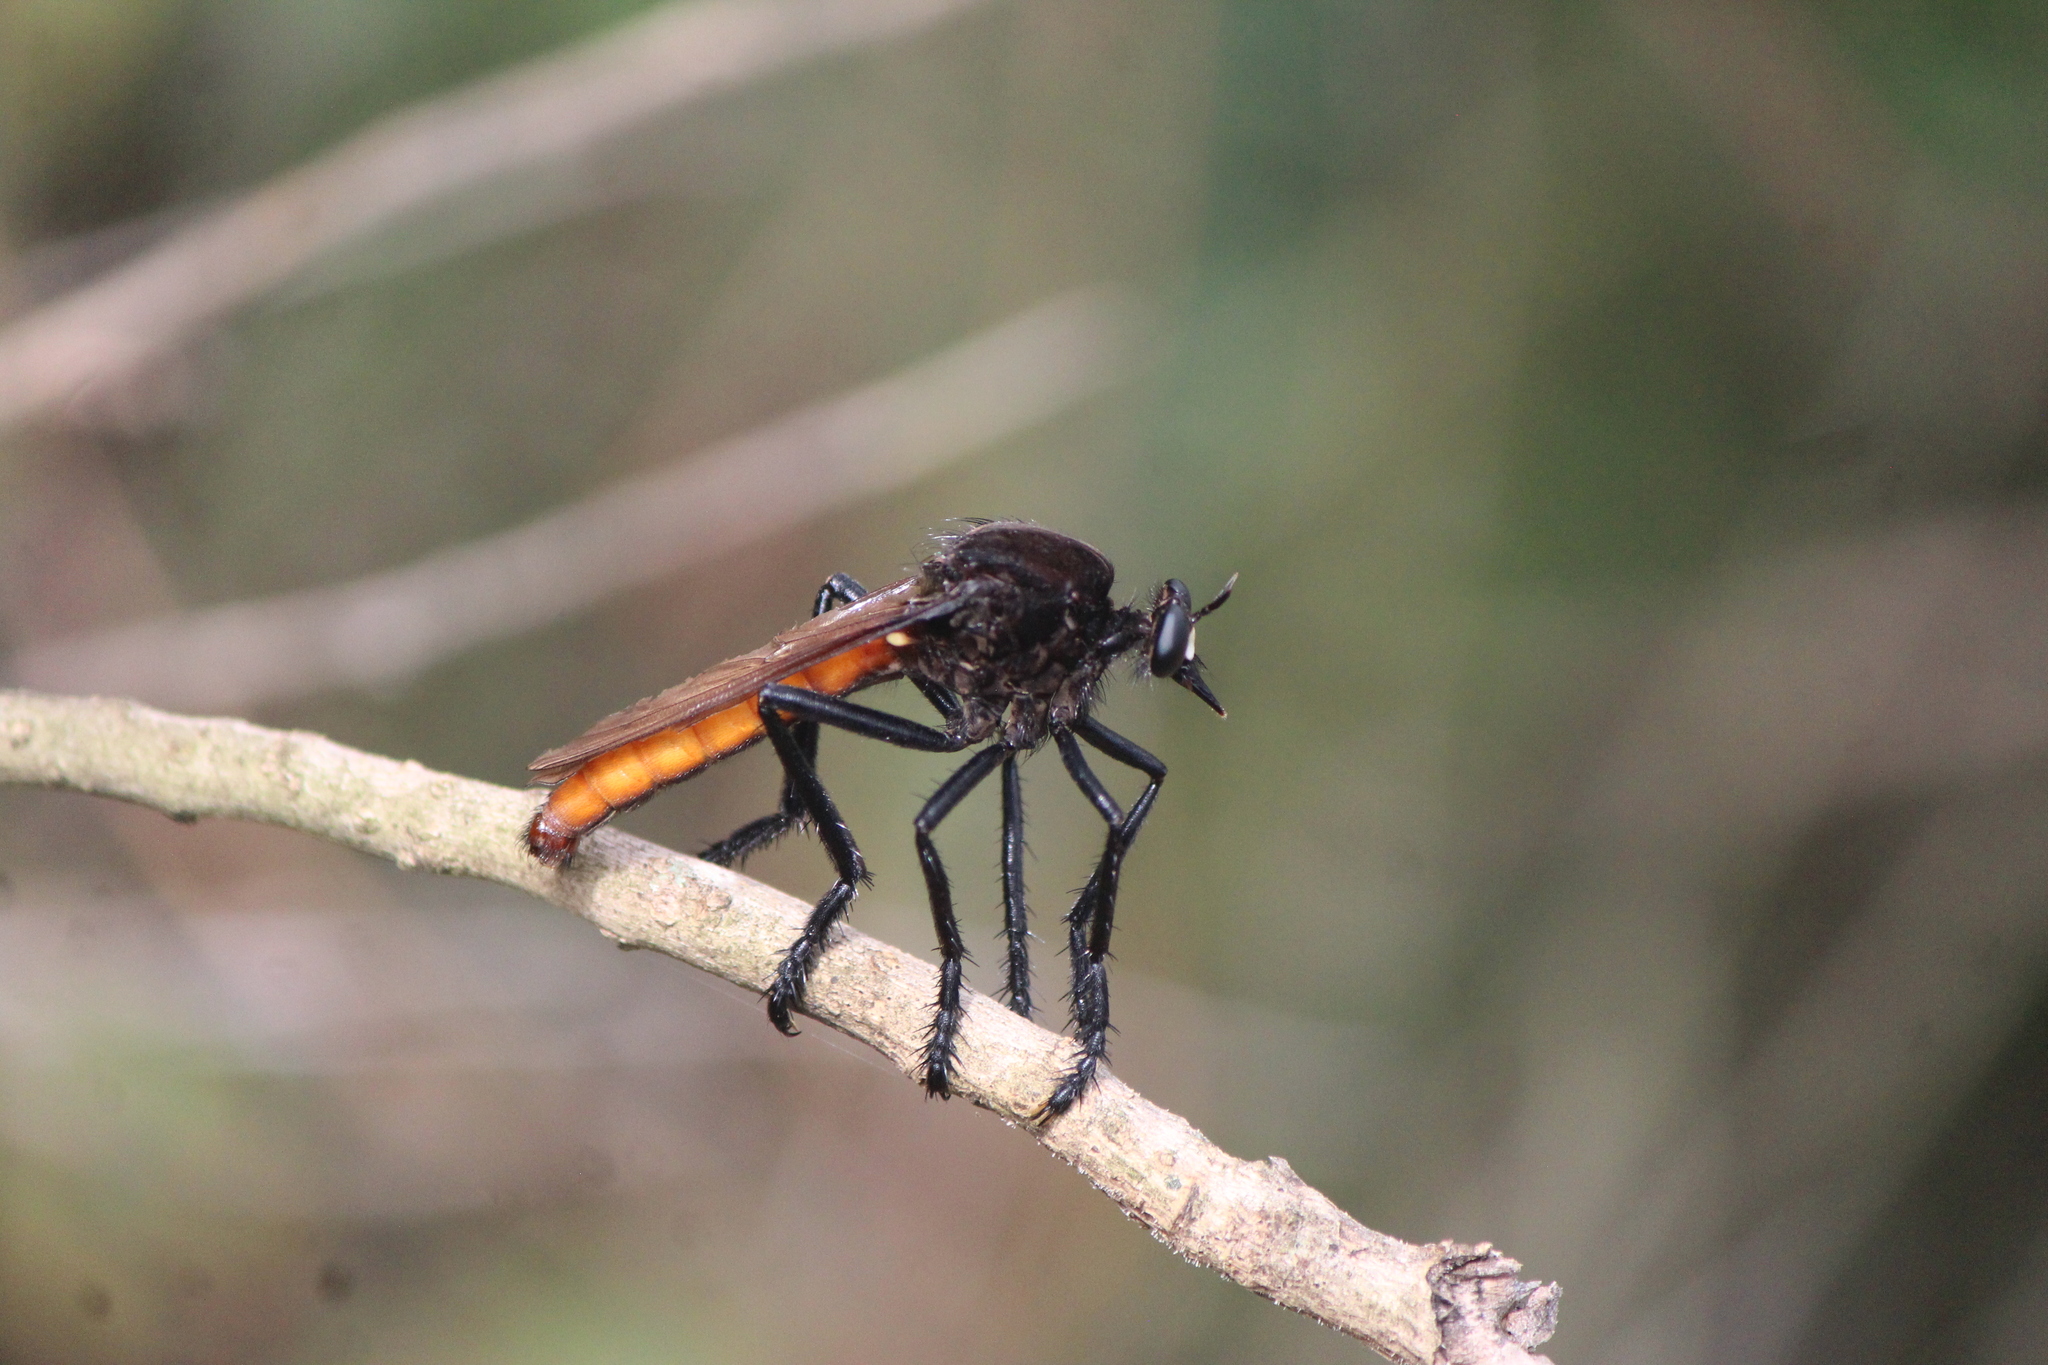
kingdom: Animalia
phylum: Arthropoda
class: Insecta
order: Diptera
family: Asilidae
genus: Archilestris
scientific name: Archilestris magnificus
